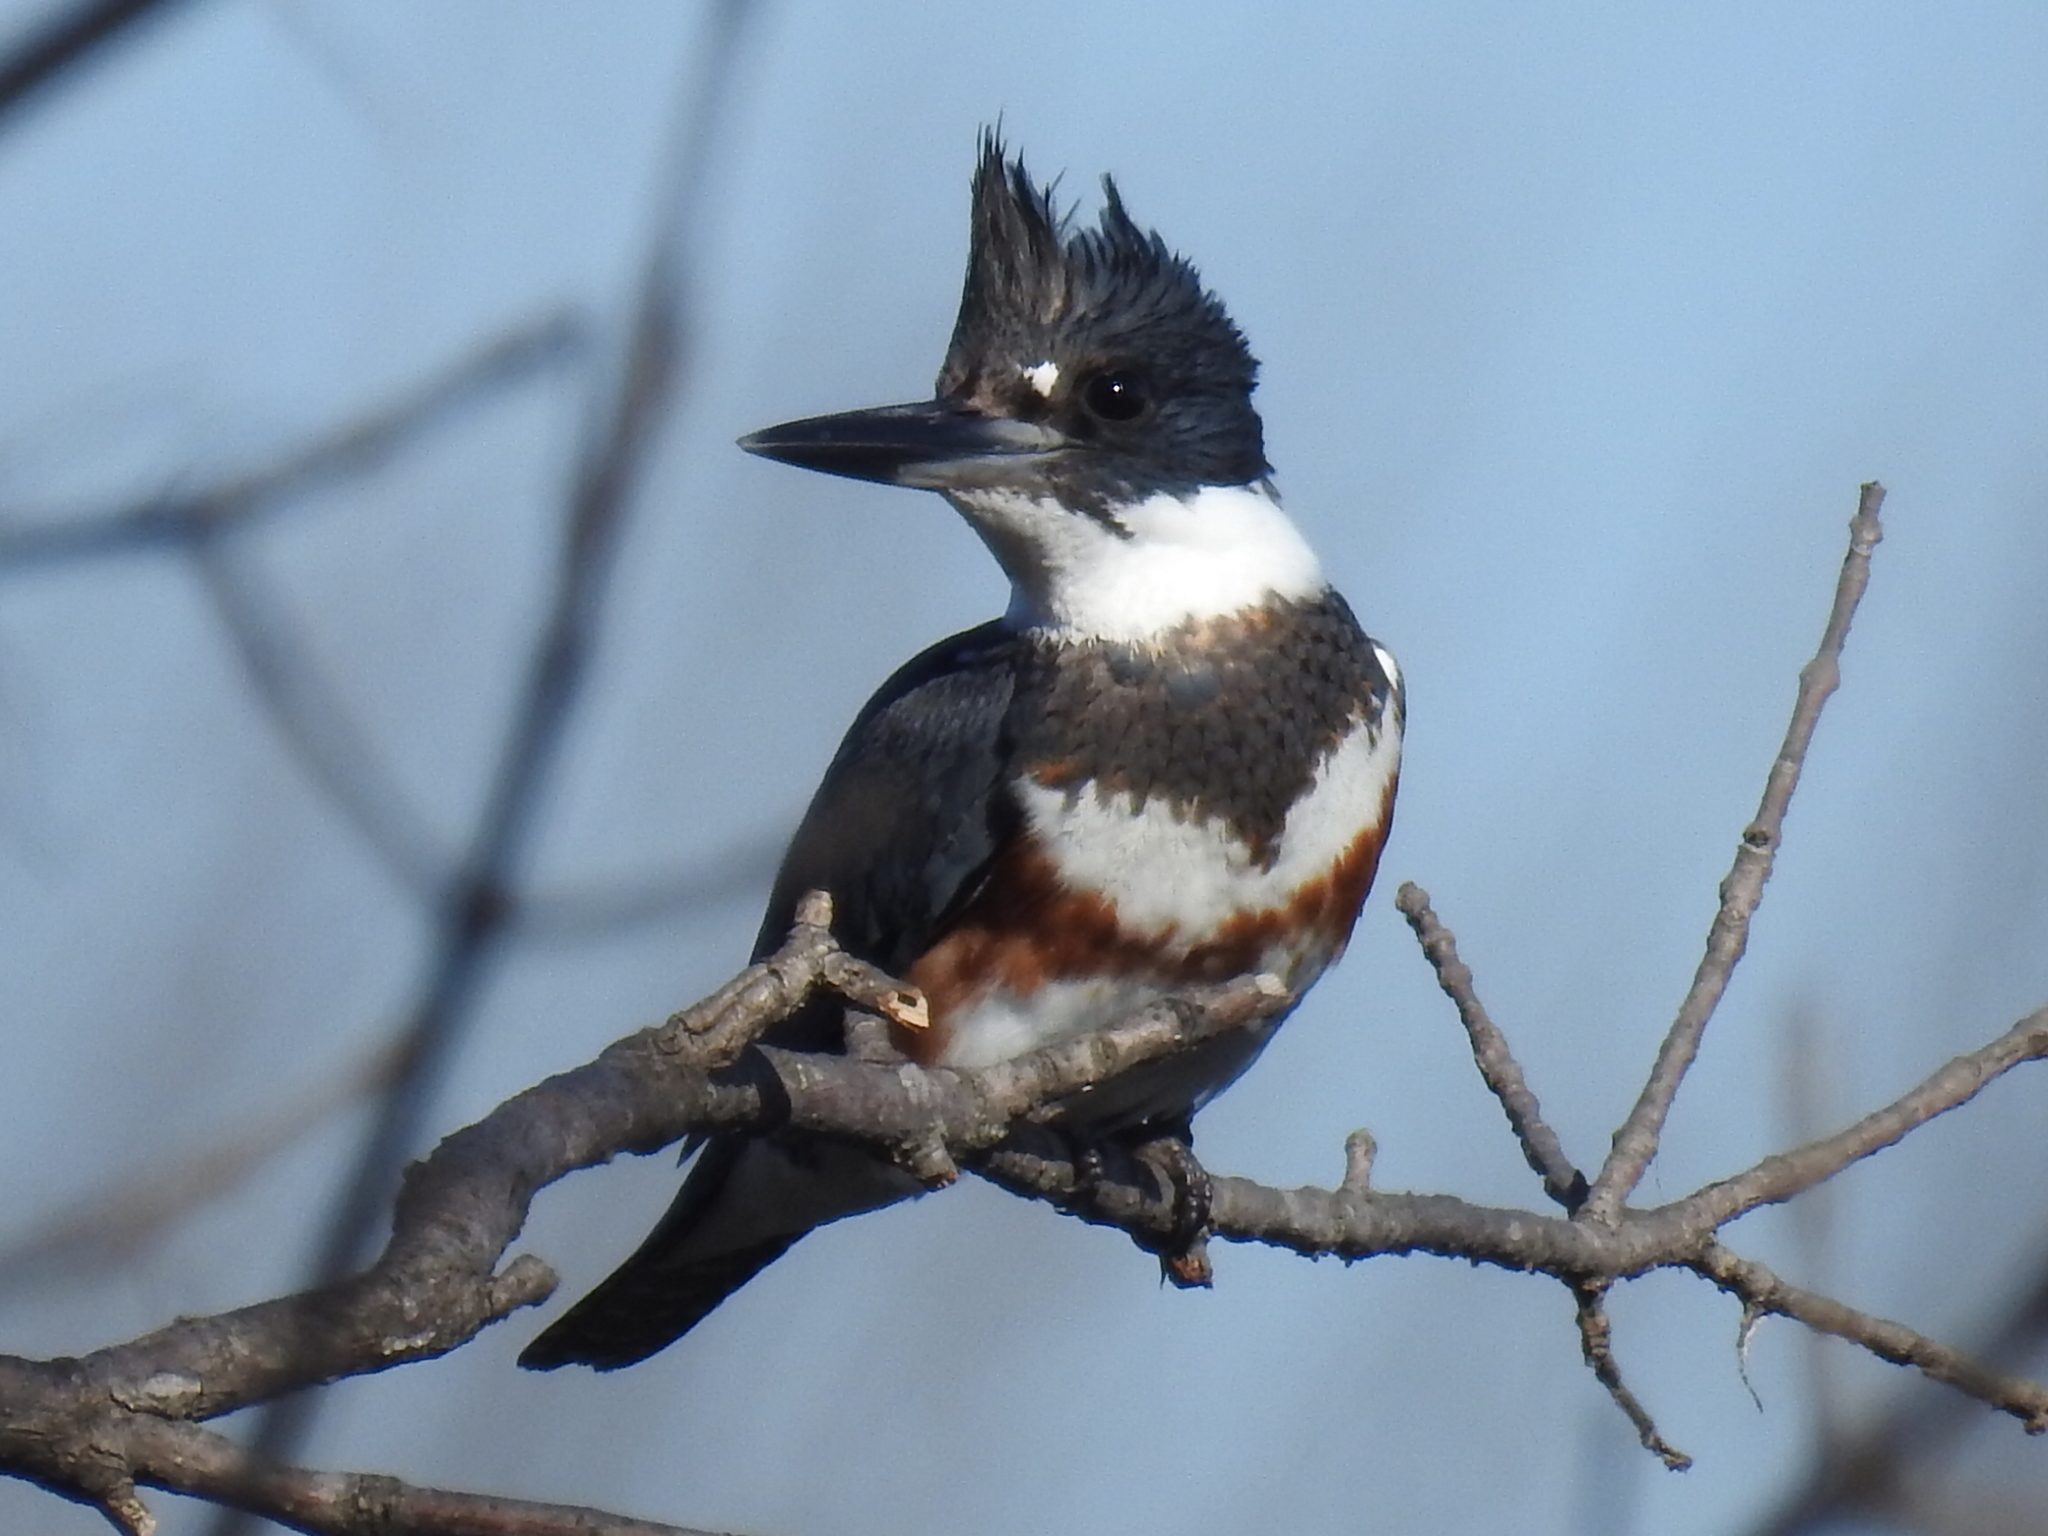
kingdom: Animalia
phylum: Chordata
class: Aves
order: Coraciiformes
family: Alcedinidae
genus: Megaceryle
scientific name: Megaceryle alcyon
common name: Belted kingfisher
